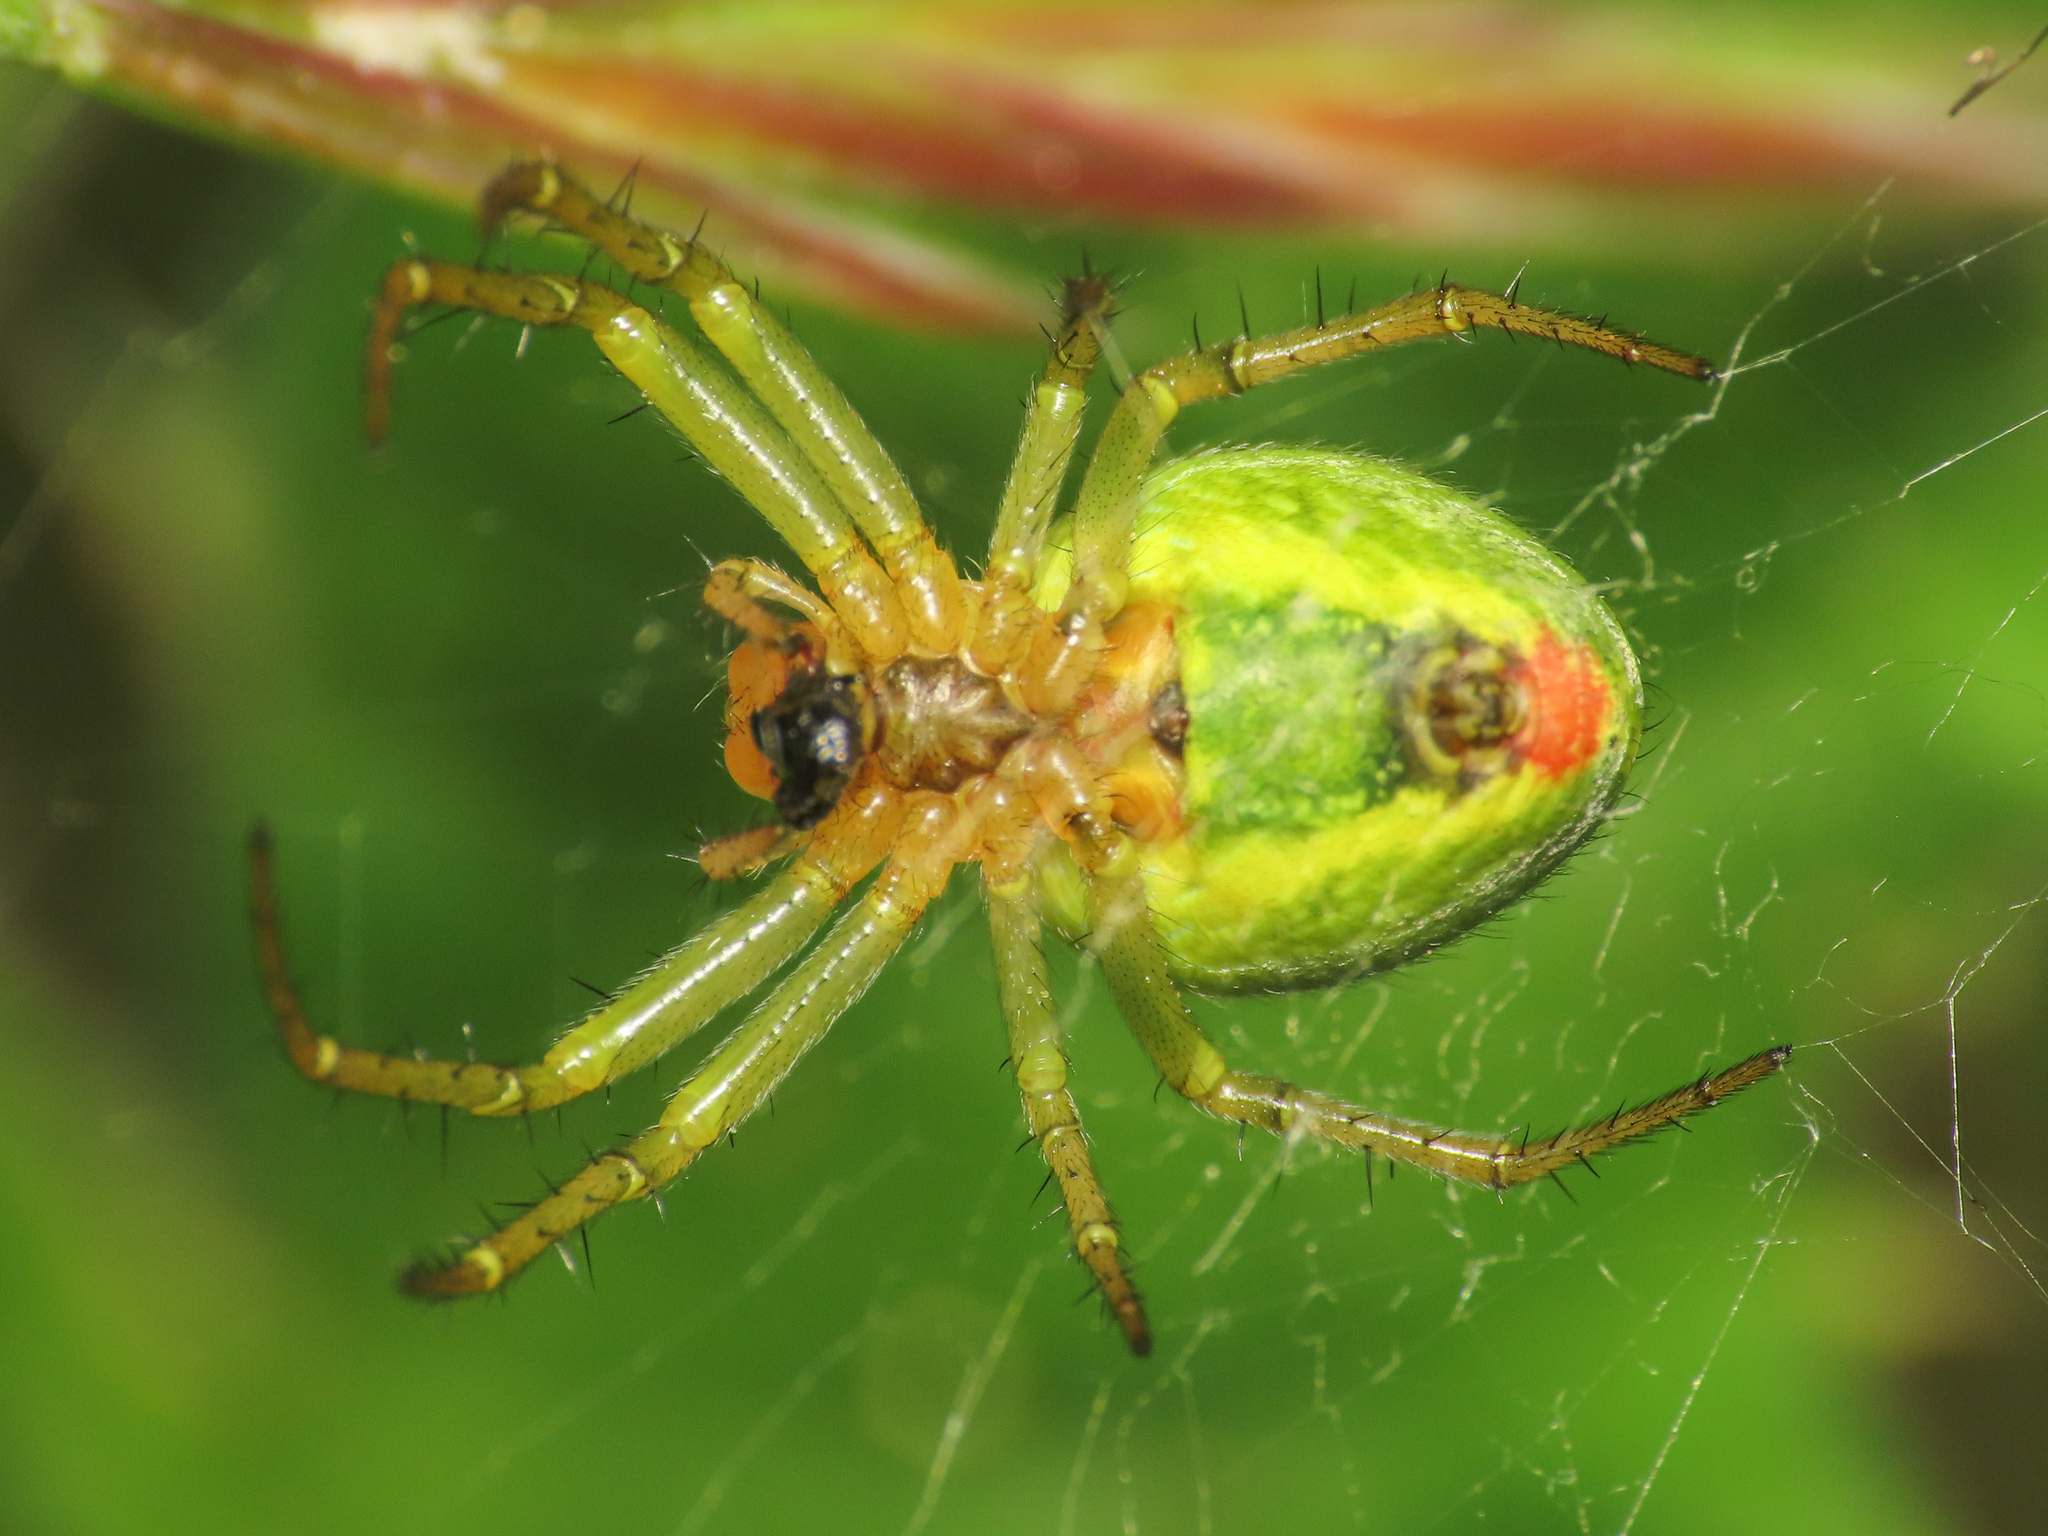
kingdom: Animalia
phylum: Arthropoda
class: Arachnida
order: Araneae
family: Araneidae
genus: Araniella
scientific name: Araniella cucurbitina
